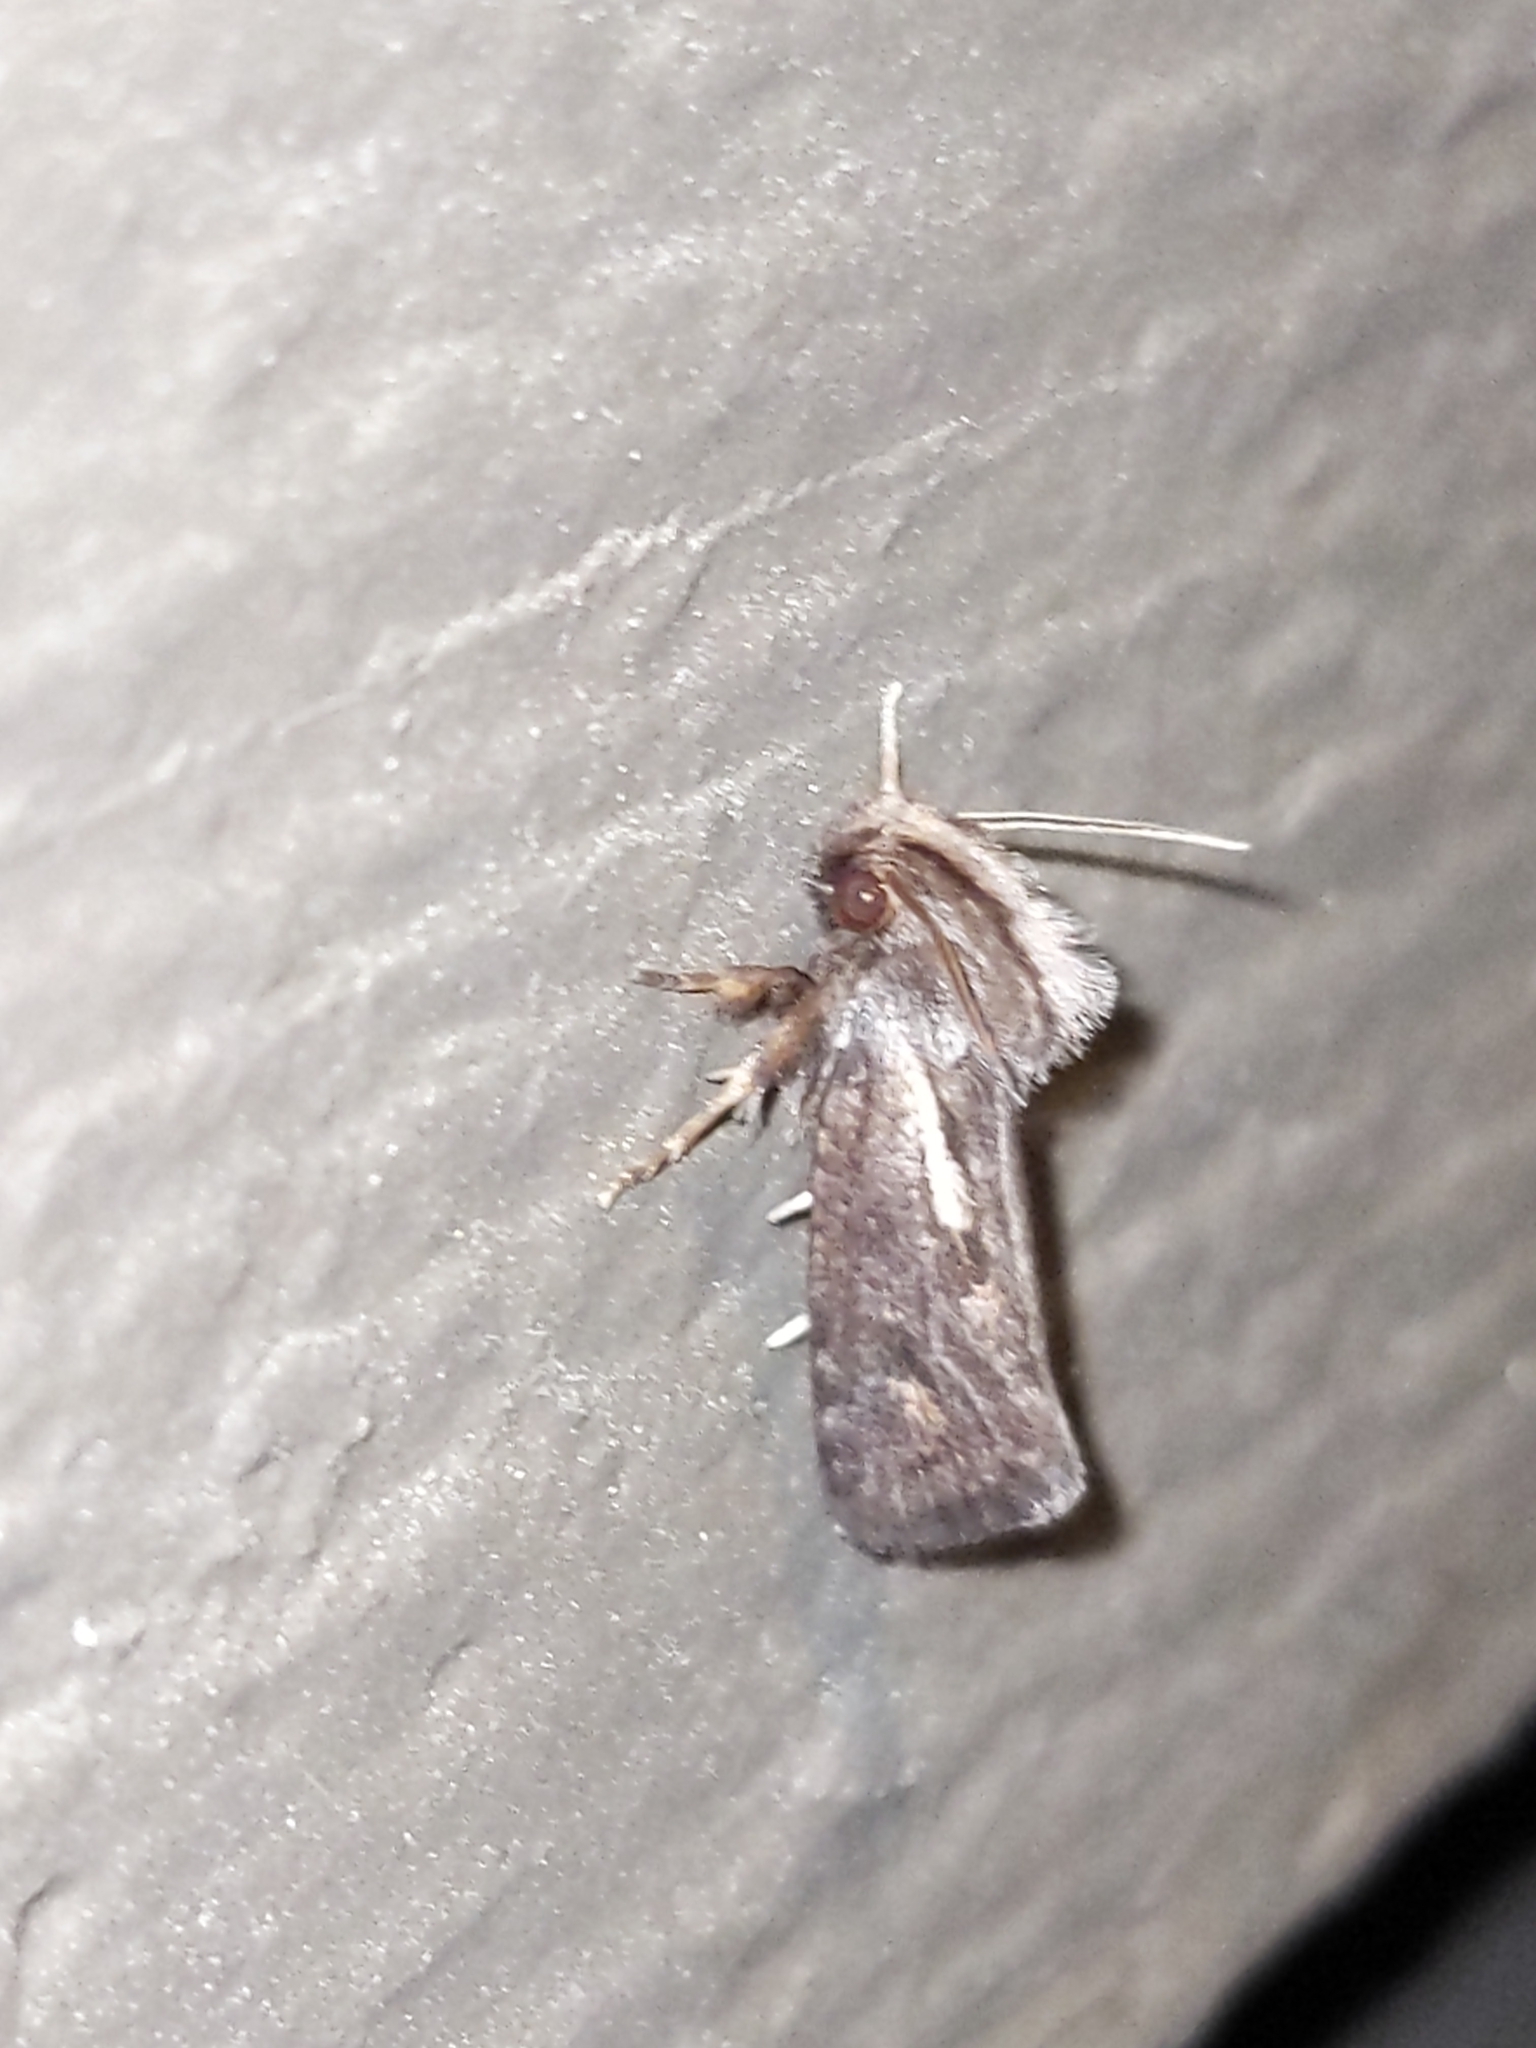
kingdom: Animalia
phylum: Arthropoda
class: Insecta
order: Lepidoptera
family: Tineidae
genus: Acrolophus
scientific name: Acrolophus popeanella
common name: Clemens' grass tubeworm moth
